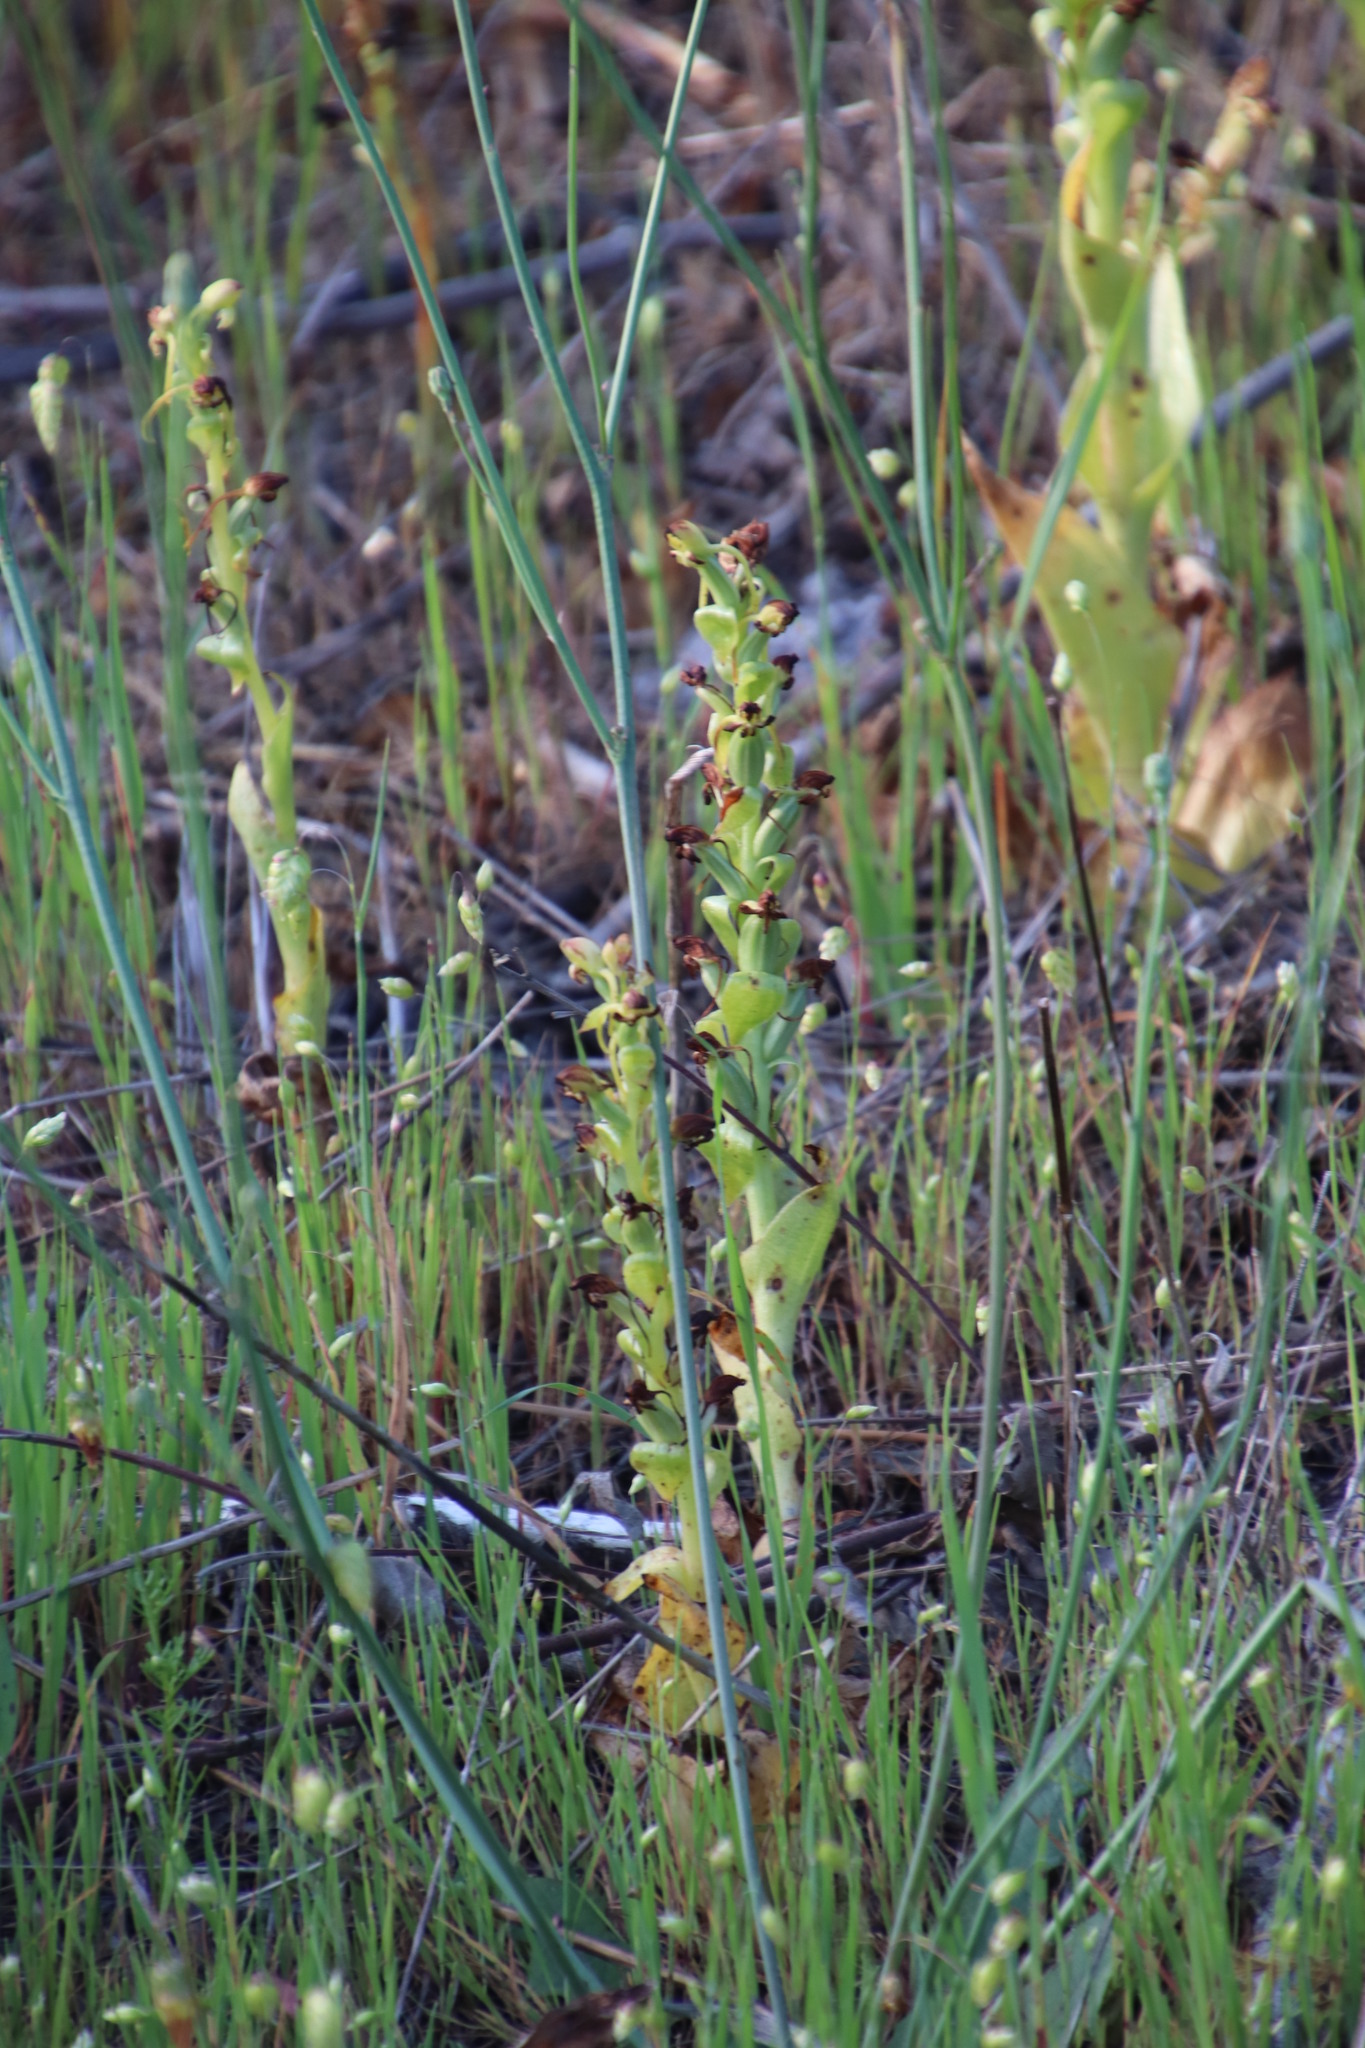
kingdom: Plantae
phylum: Tracheophyta
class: Liliopsida
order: Asparagales
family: Orchidaceae
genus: Satyrium
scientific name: Satyrium odorum
